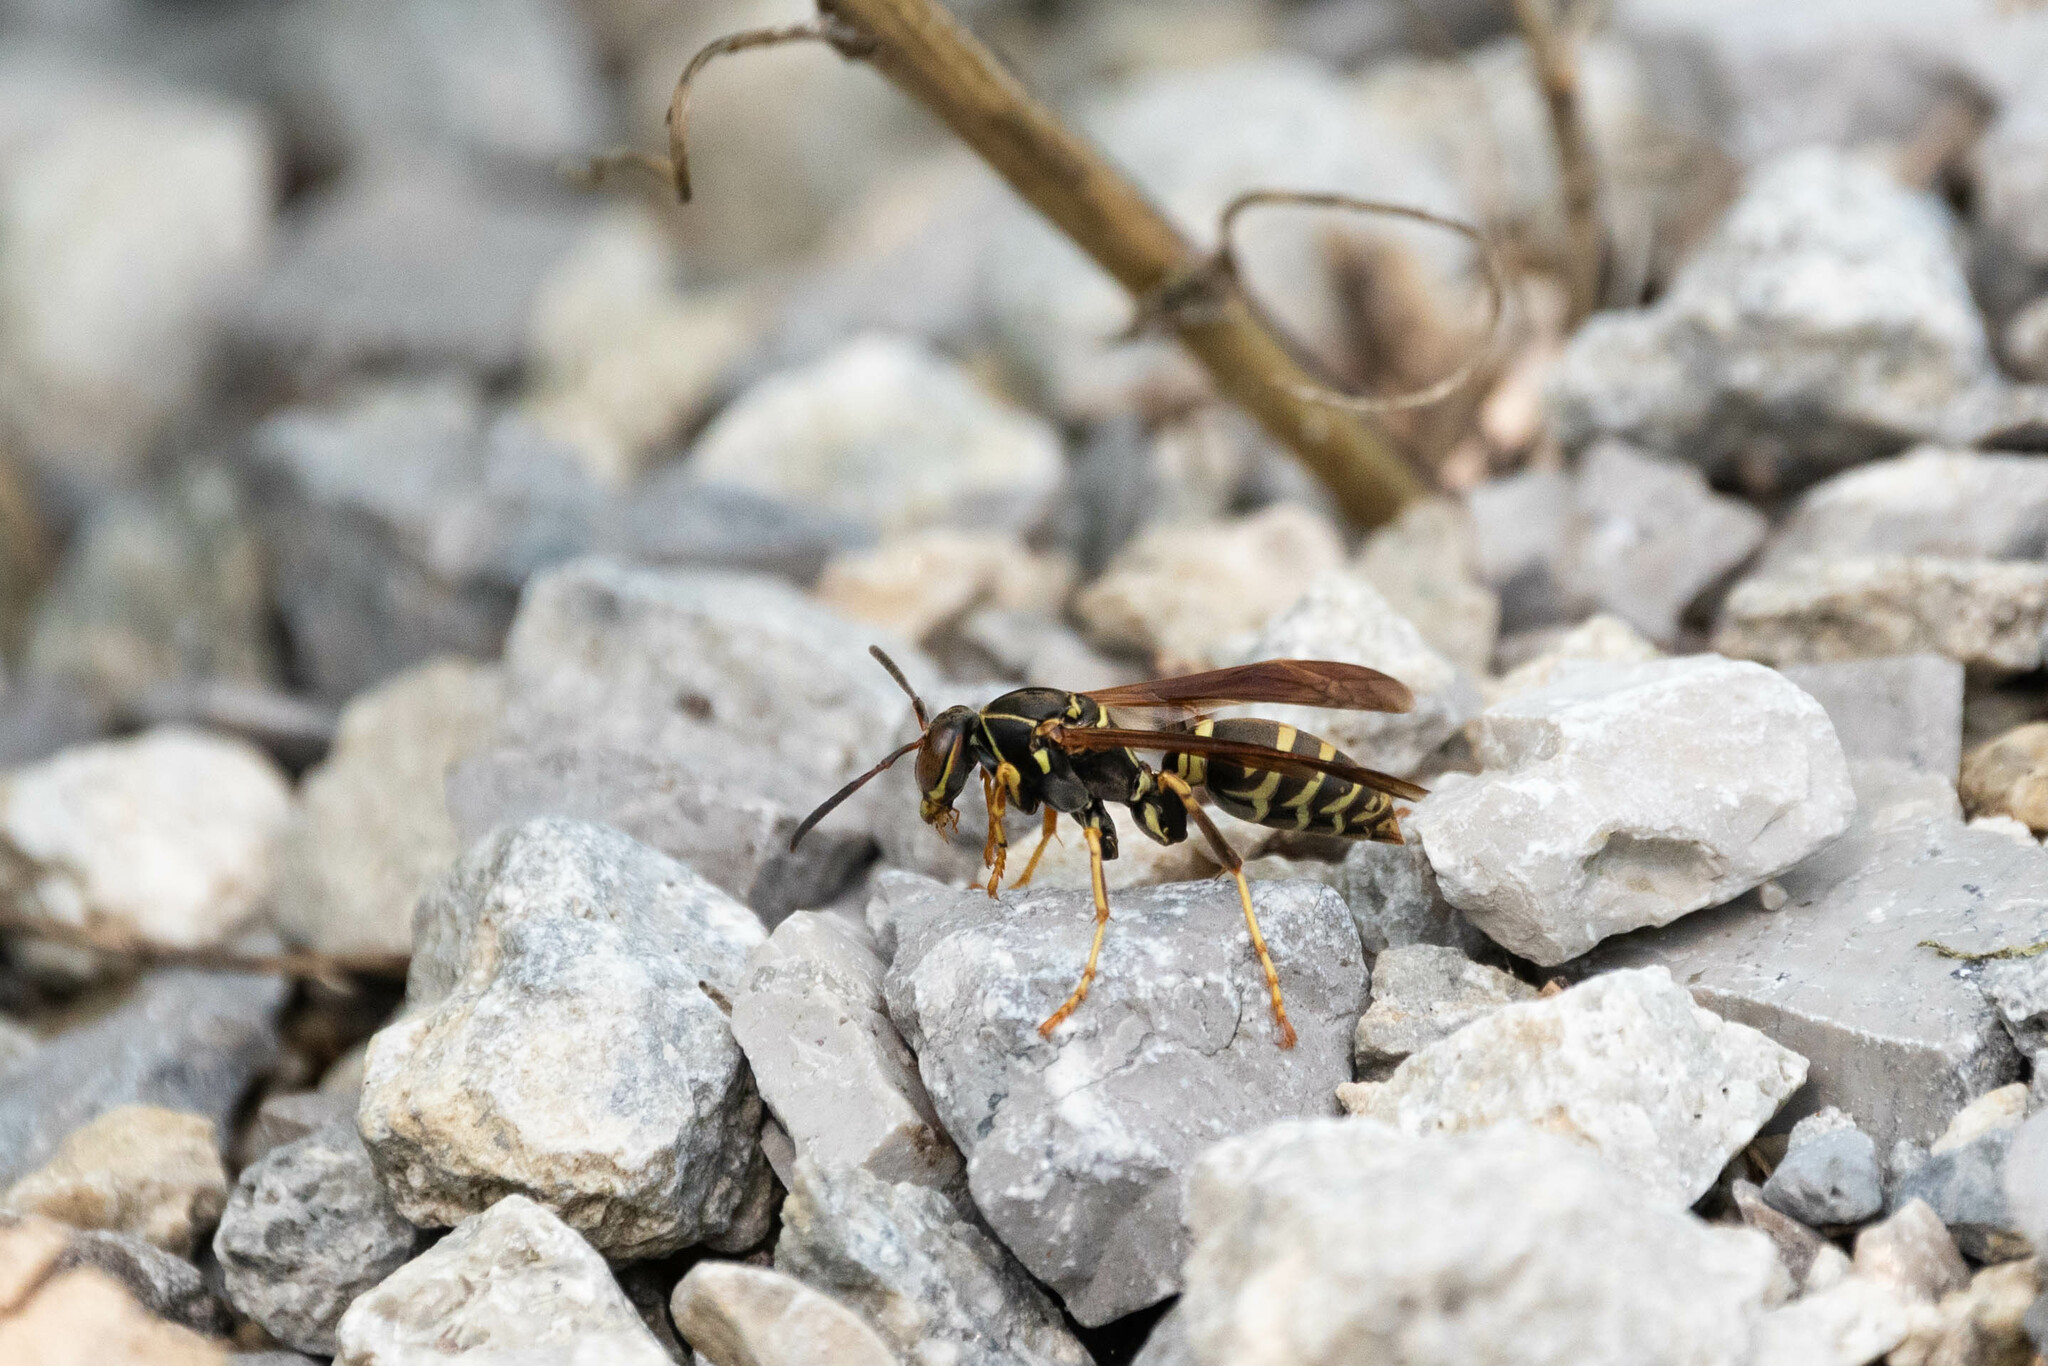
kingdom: Animalia
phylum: Arthropoda
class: Insecta
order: Hymenoptera
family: Eumenidae
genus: Polistes
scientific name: Polistes fuscatus
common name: Dark paper wasp
